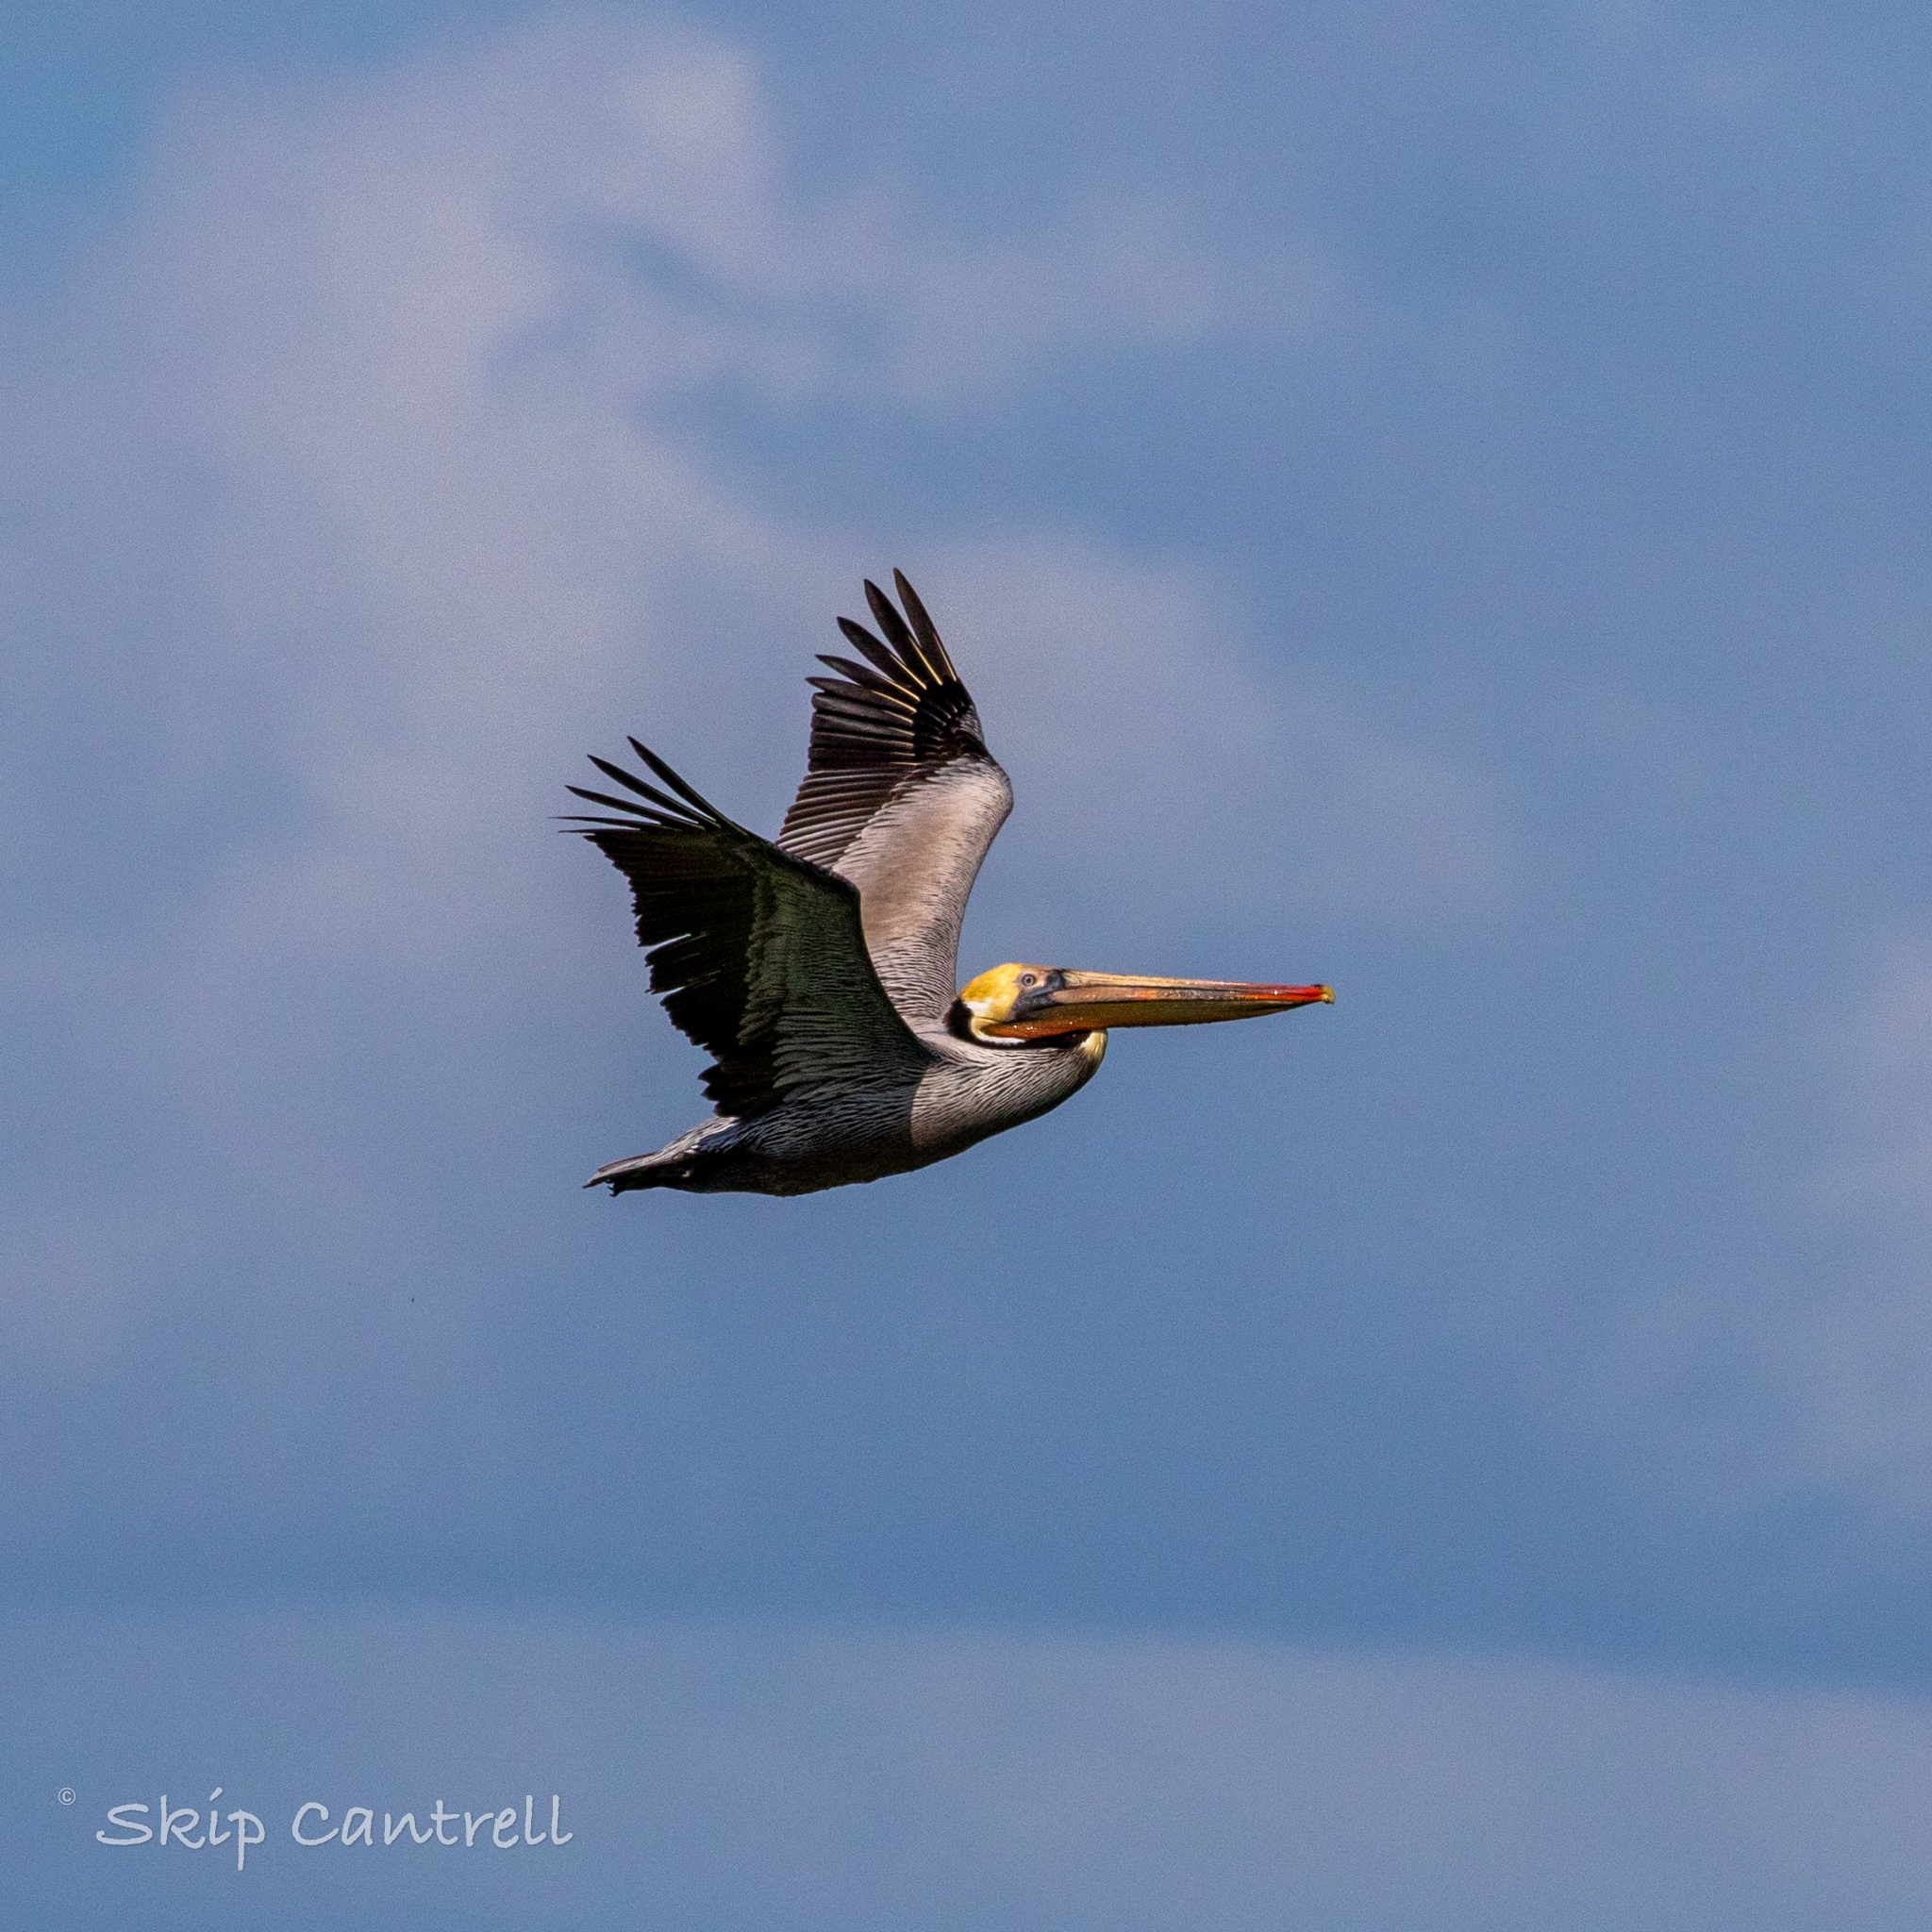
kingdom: Animalia
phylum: Chordata
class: Aves
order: Pelecaniformes
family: Pelecanidae
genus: Pelecanus
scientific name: Pelecanus occidentalis
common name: Brown pelican
